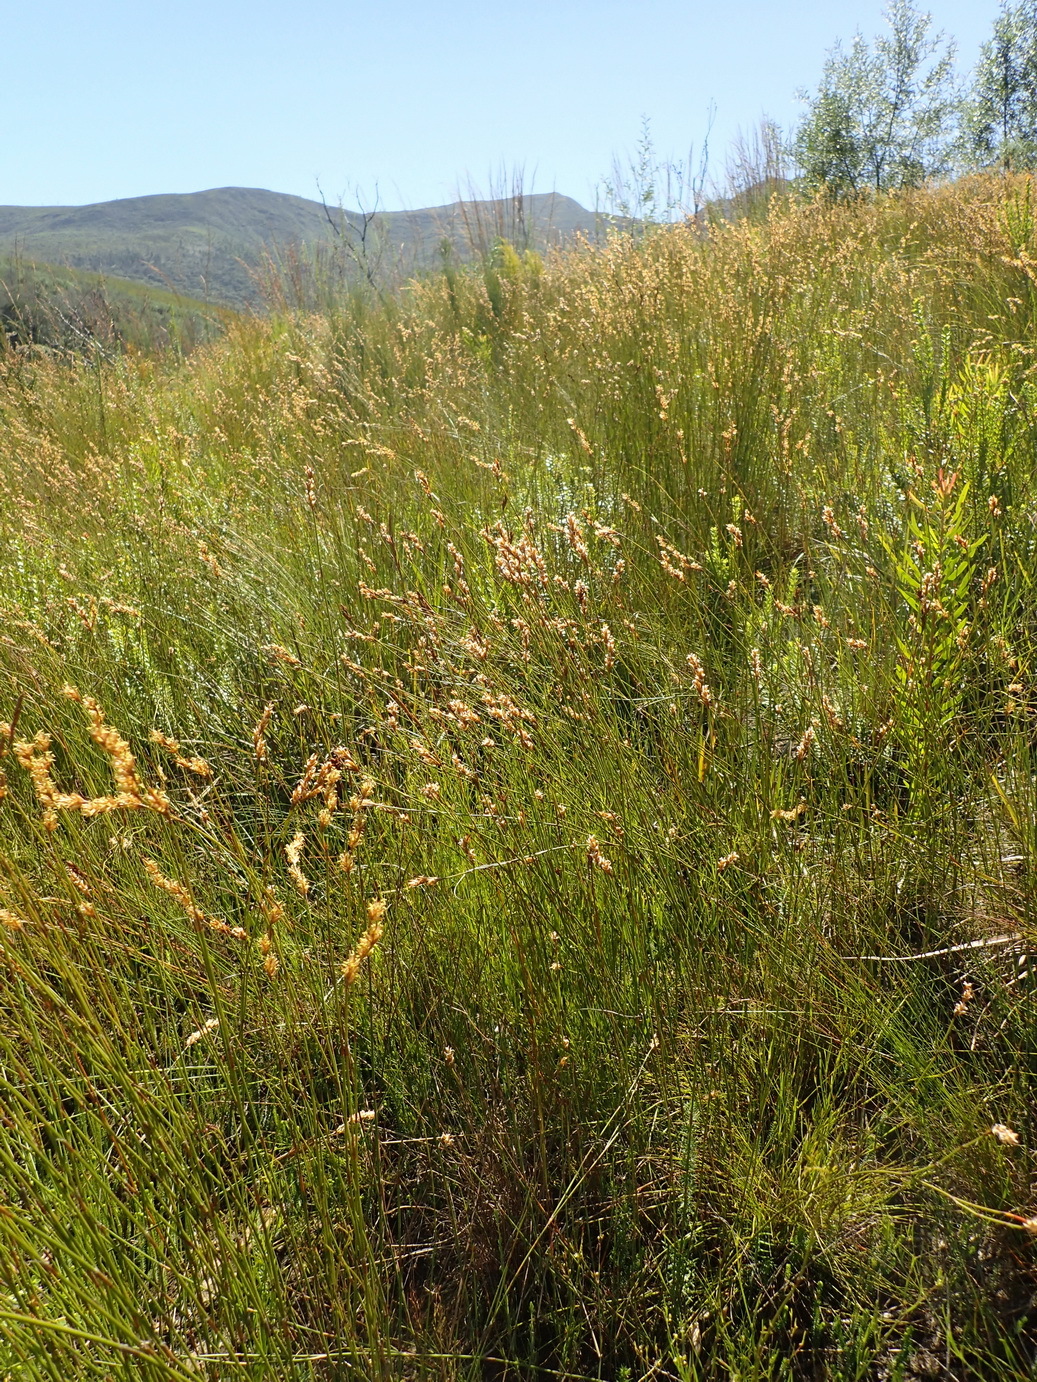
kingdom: Plantae
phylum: Tracheophyta
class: Liliopsida
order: Poales
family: Restionaceae
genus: Restio
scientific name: Restio triticeus
